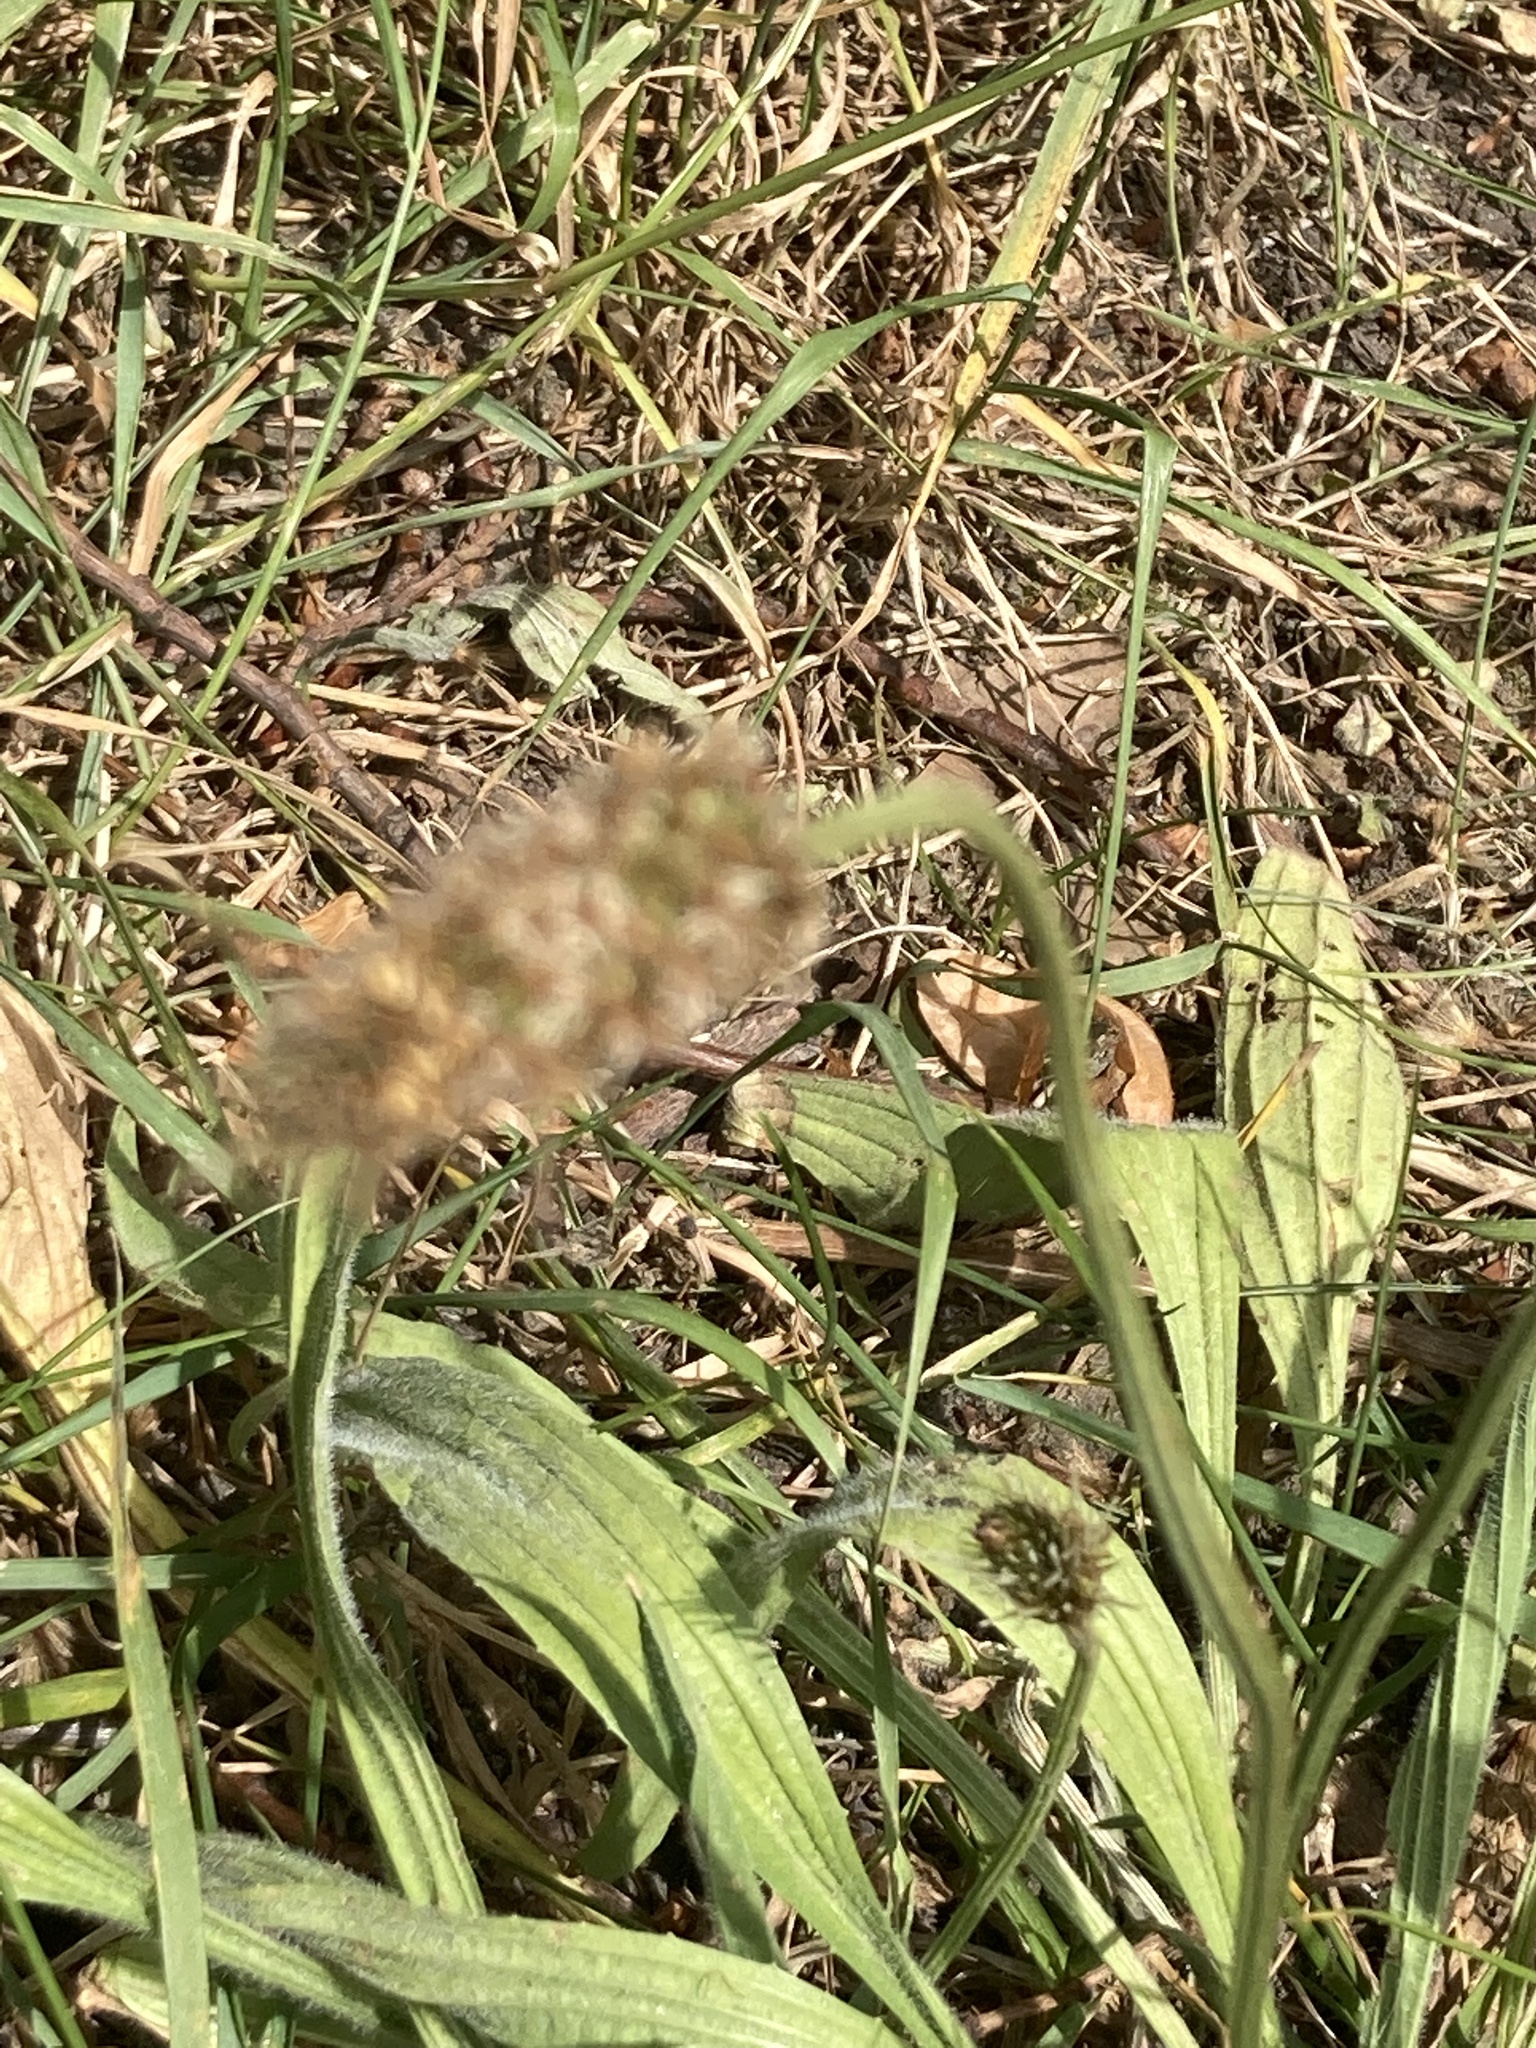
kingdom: Plantae
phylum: Tracheophyta
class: Magnoliopsida
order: Lamiales
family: Plantaginaceae
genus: Plantago
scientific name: Plantago lanceolata
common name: Ribwort plantain
